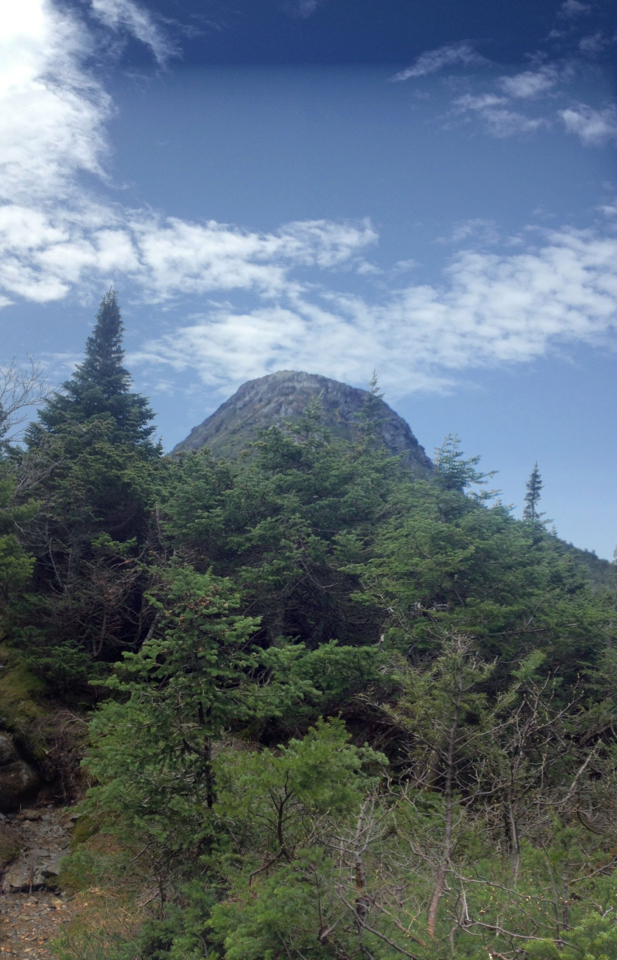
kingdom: Plantae
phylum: Tracheophyta
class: Pinopsida
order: Pinales
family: Pinaceae
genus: Abies
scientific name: Abies balsamea
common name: Balsam fir
